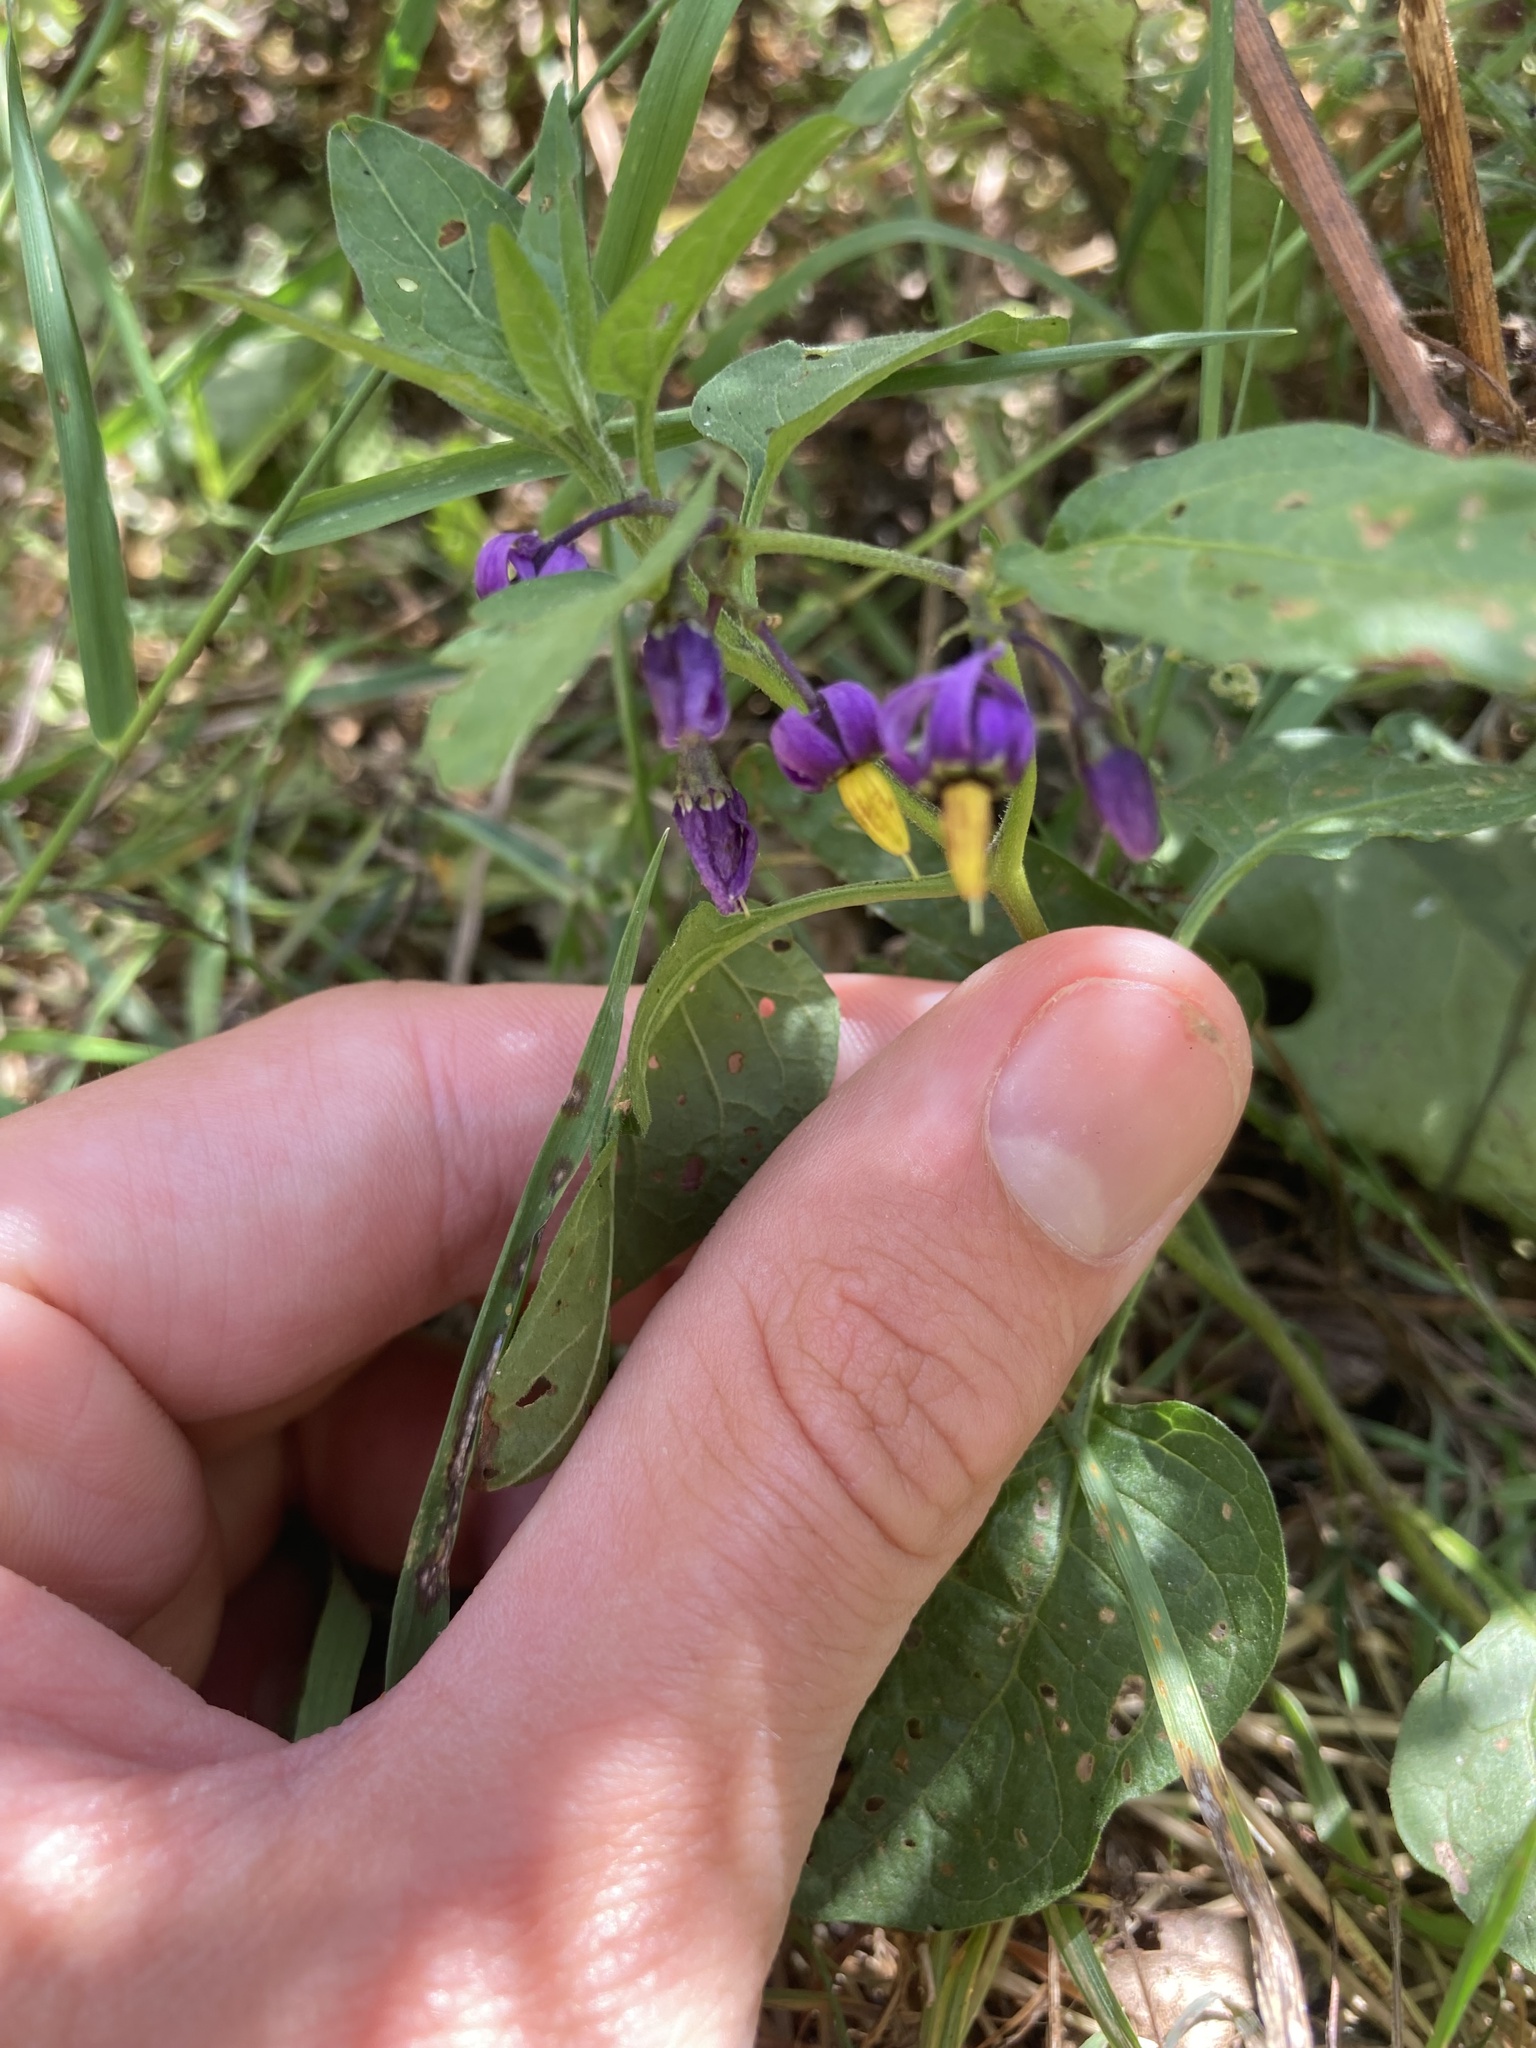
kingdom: Plantae
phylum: Tracheophyta
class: Magnoliopsida
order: Solanales
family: Solanaceae
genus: Solanum
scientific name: Solanum dulcamara
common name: Climbing nightshade
